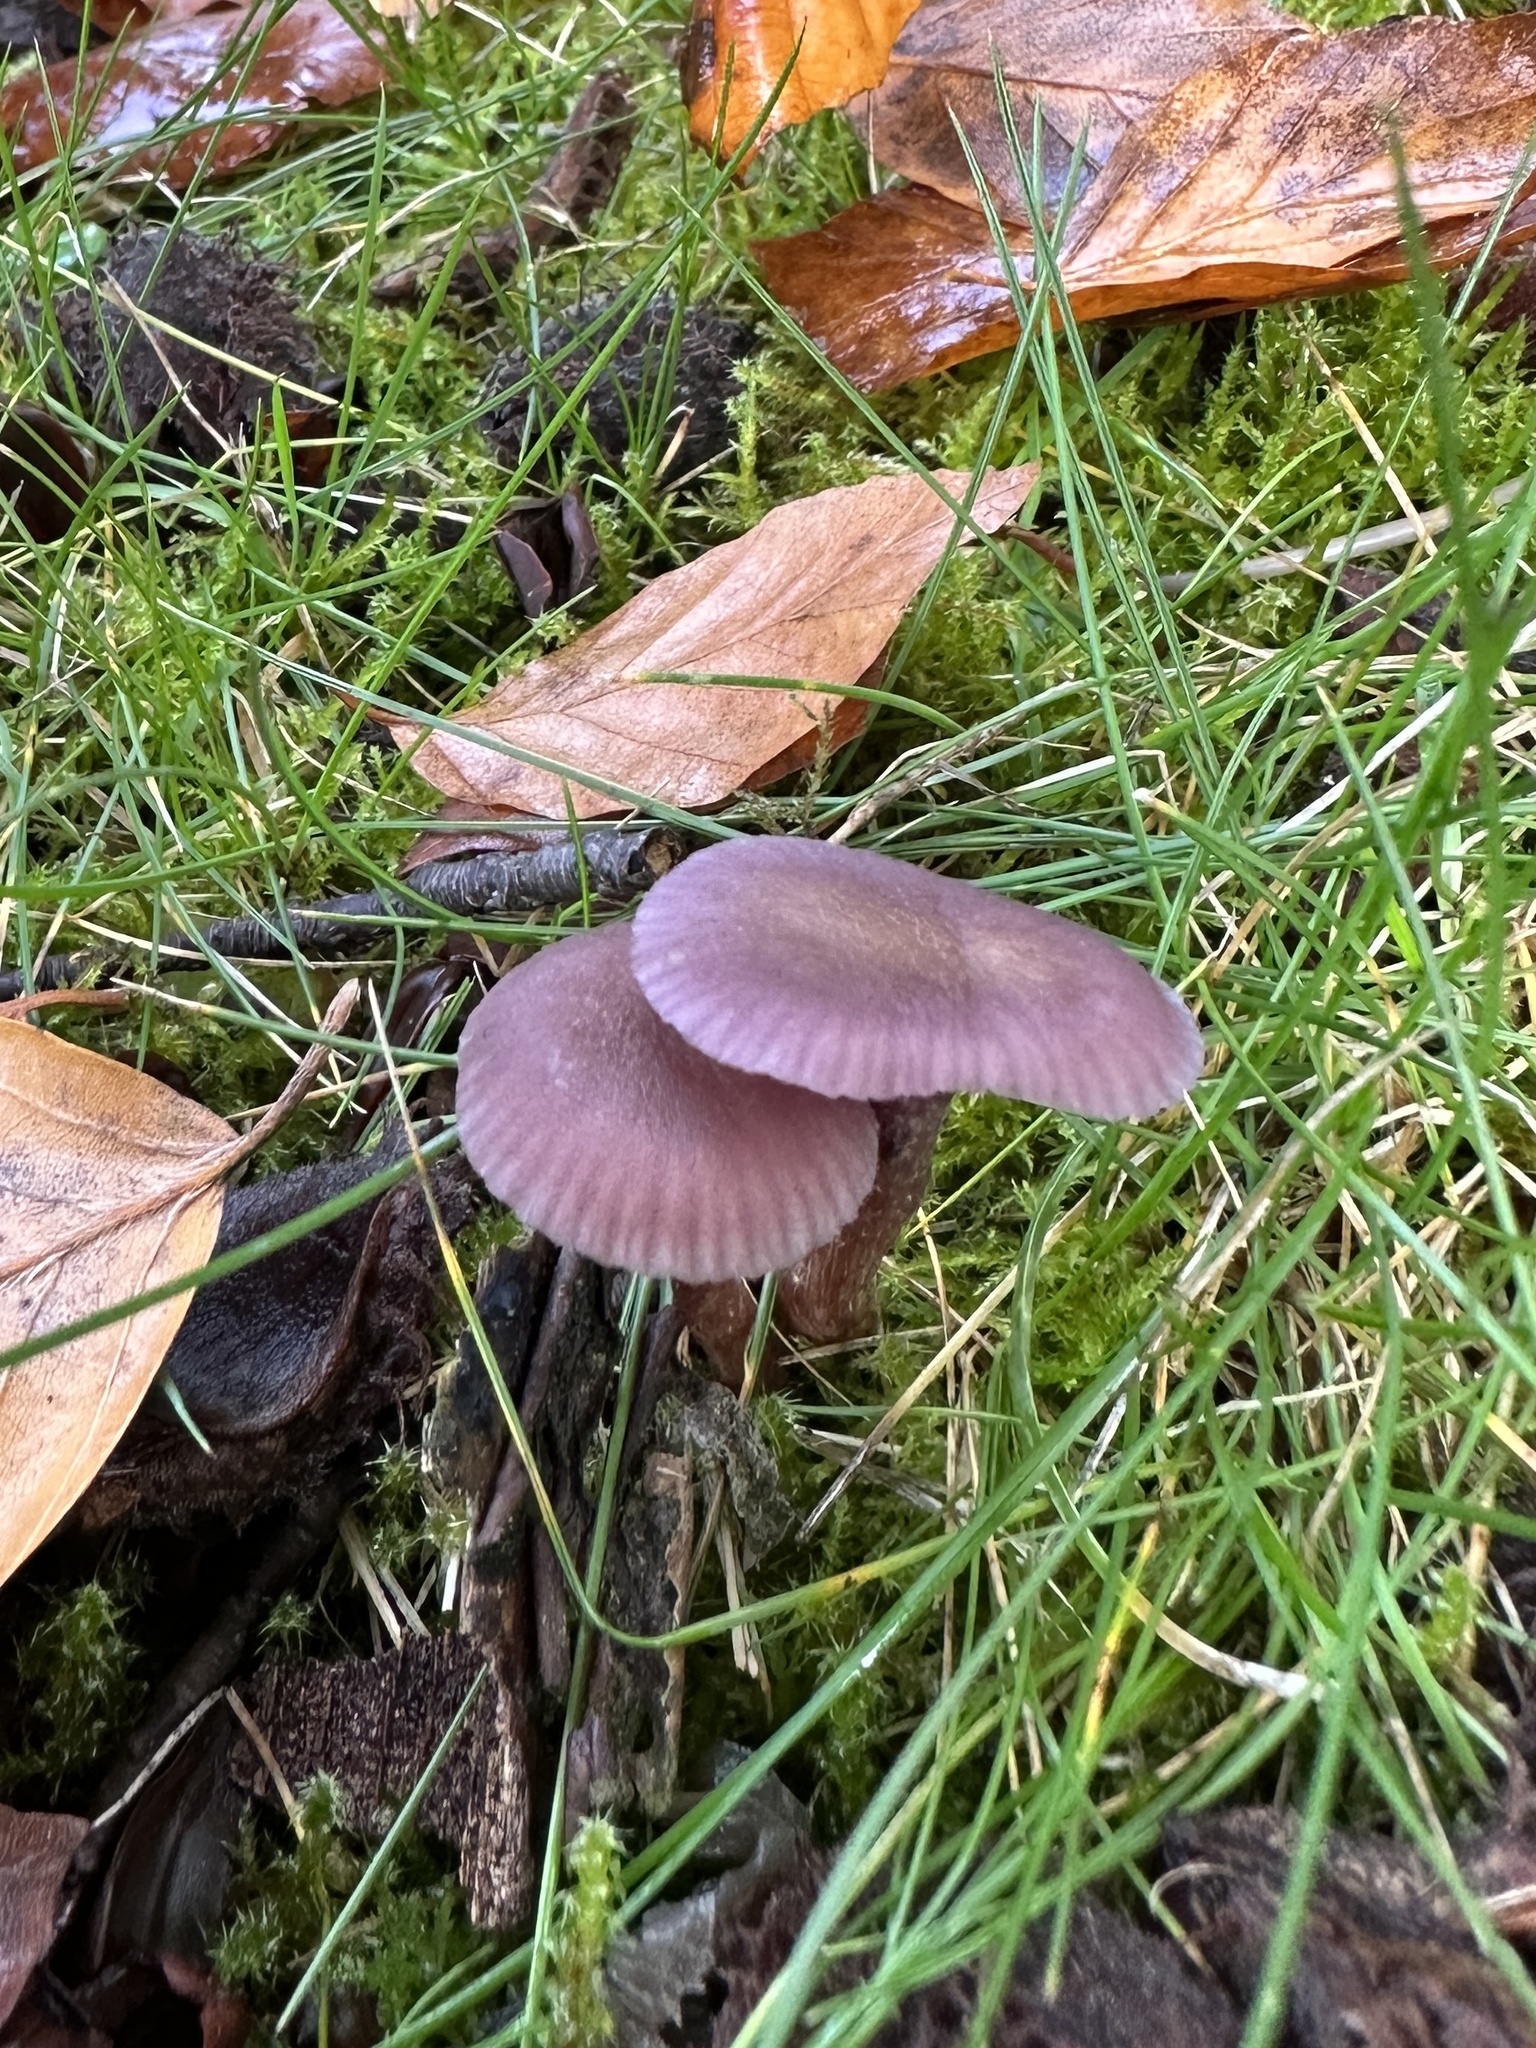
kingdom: Fungi
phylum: Basidiomycota
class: Agaricomycetes
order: Agaricales
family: Hydnangiaceae
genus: Laccaria
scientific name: Laccaria amethystina
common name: Amethyst deceiver
